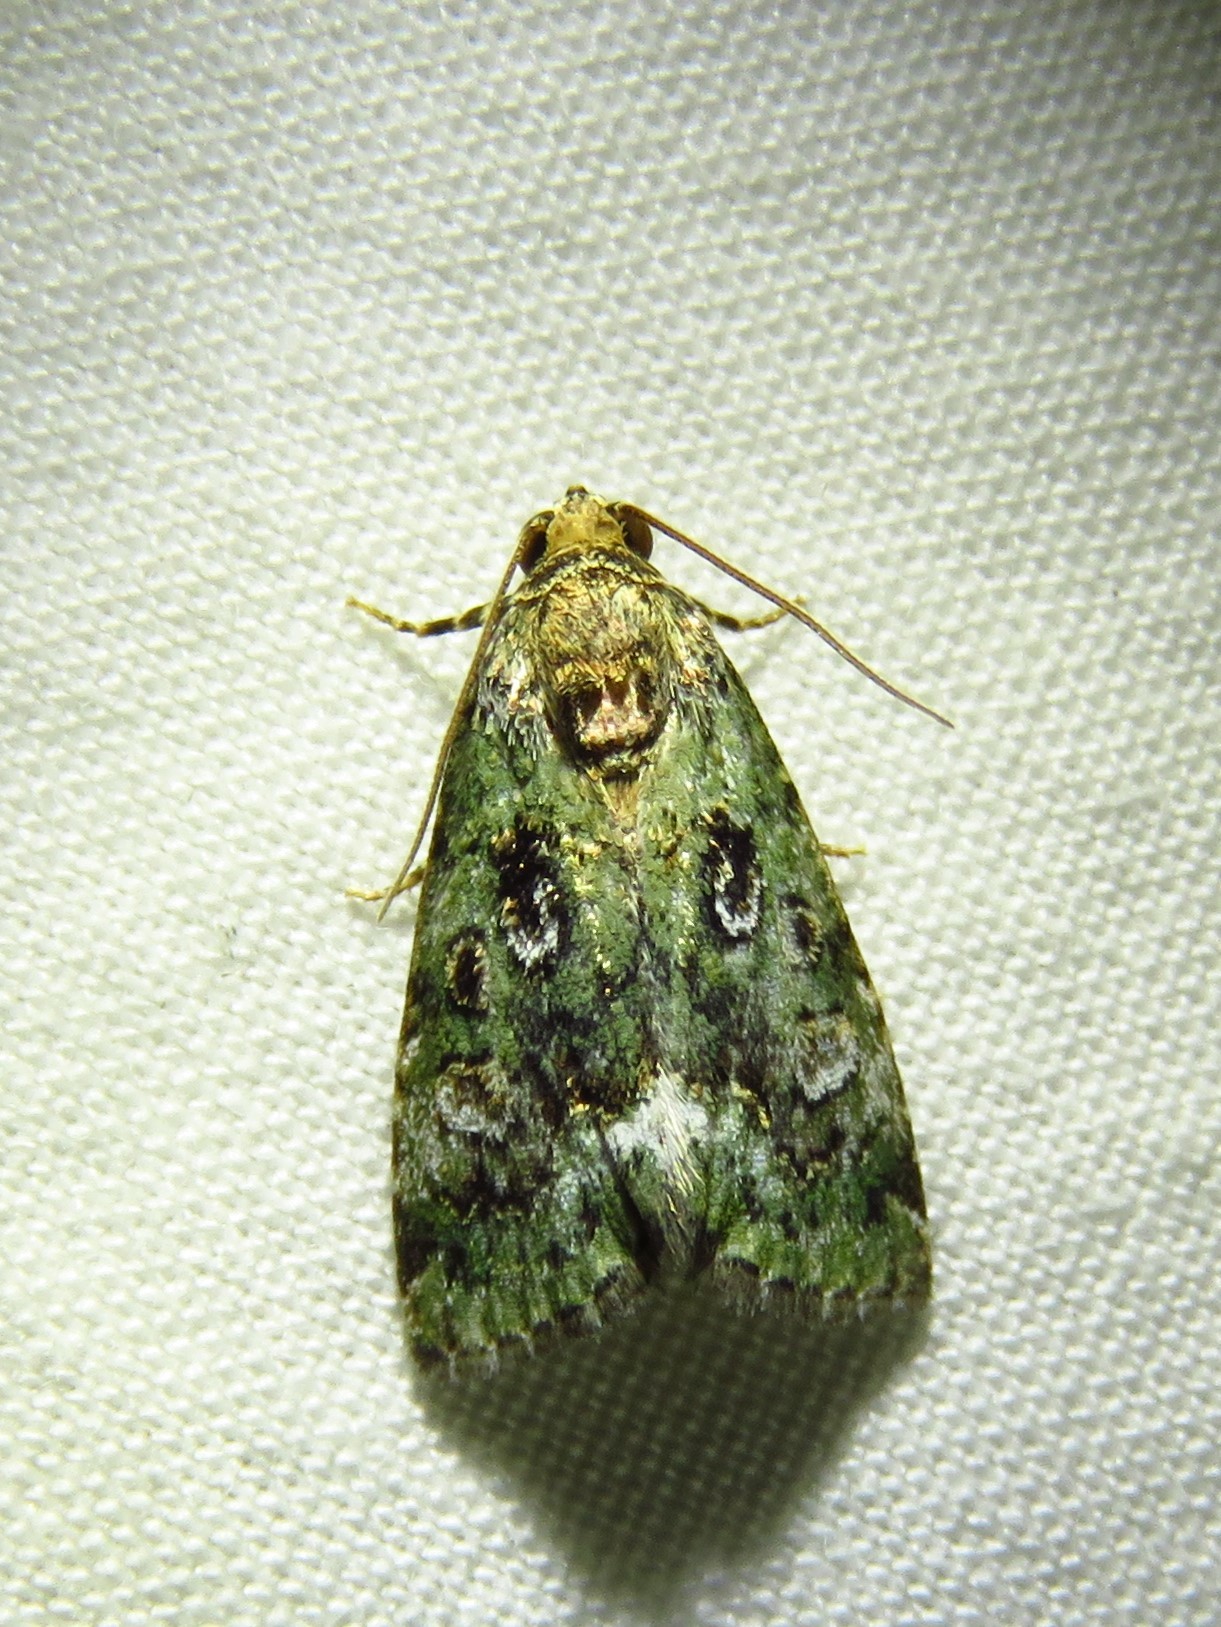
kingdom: Animalia
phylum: Arthropoda
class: Insecta
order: Lepidoptera
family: Noctuidae
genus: Lithacodia
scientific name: Lithacodia musta
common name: Small mossy glyph
